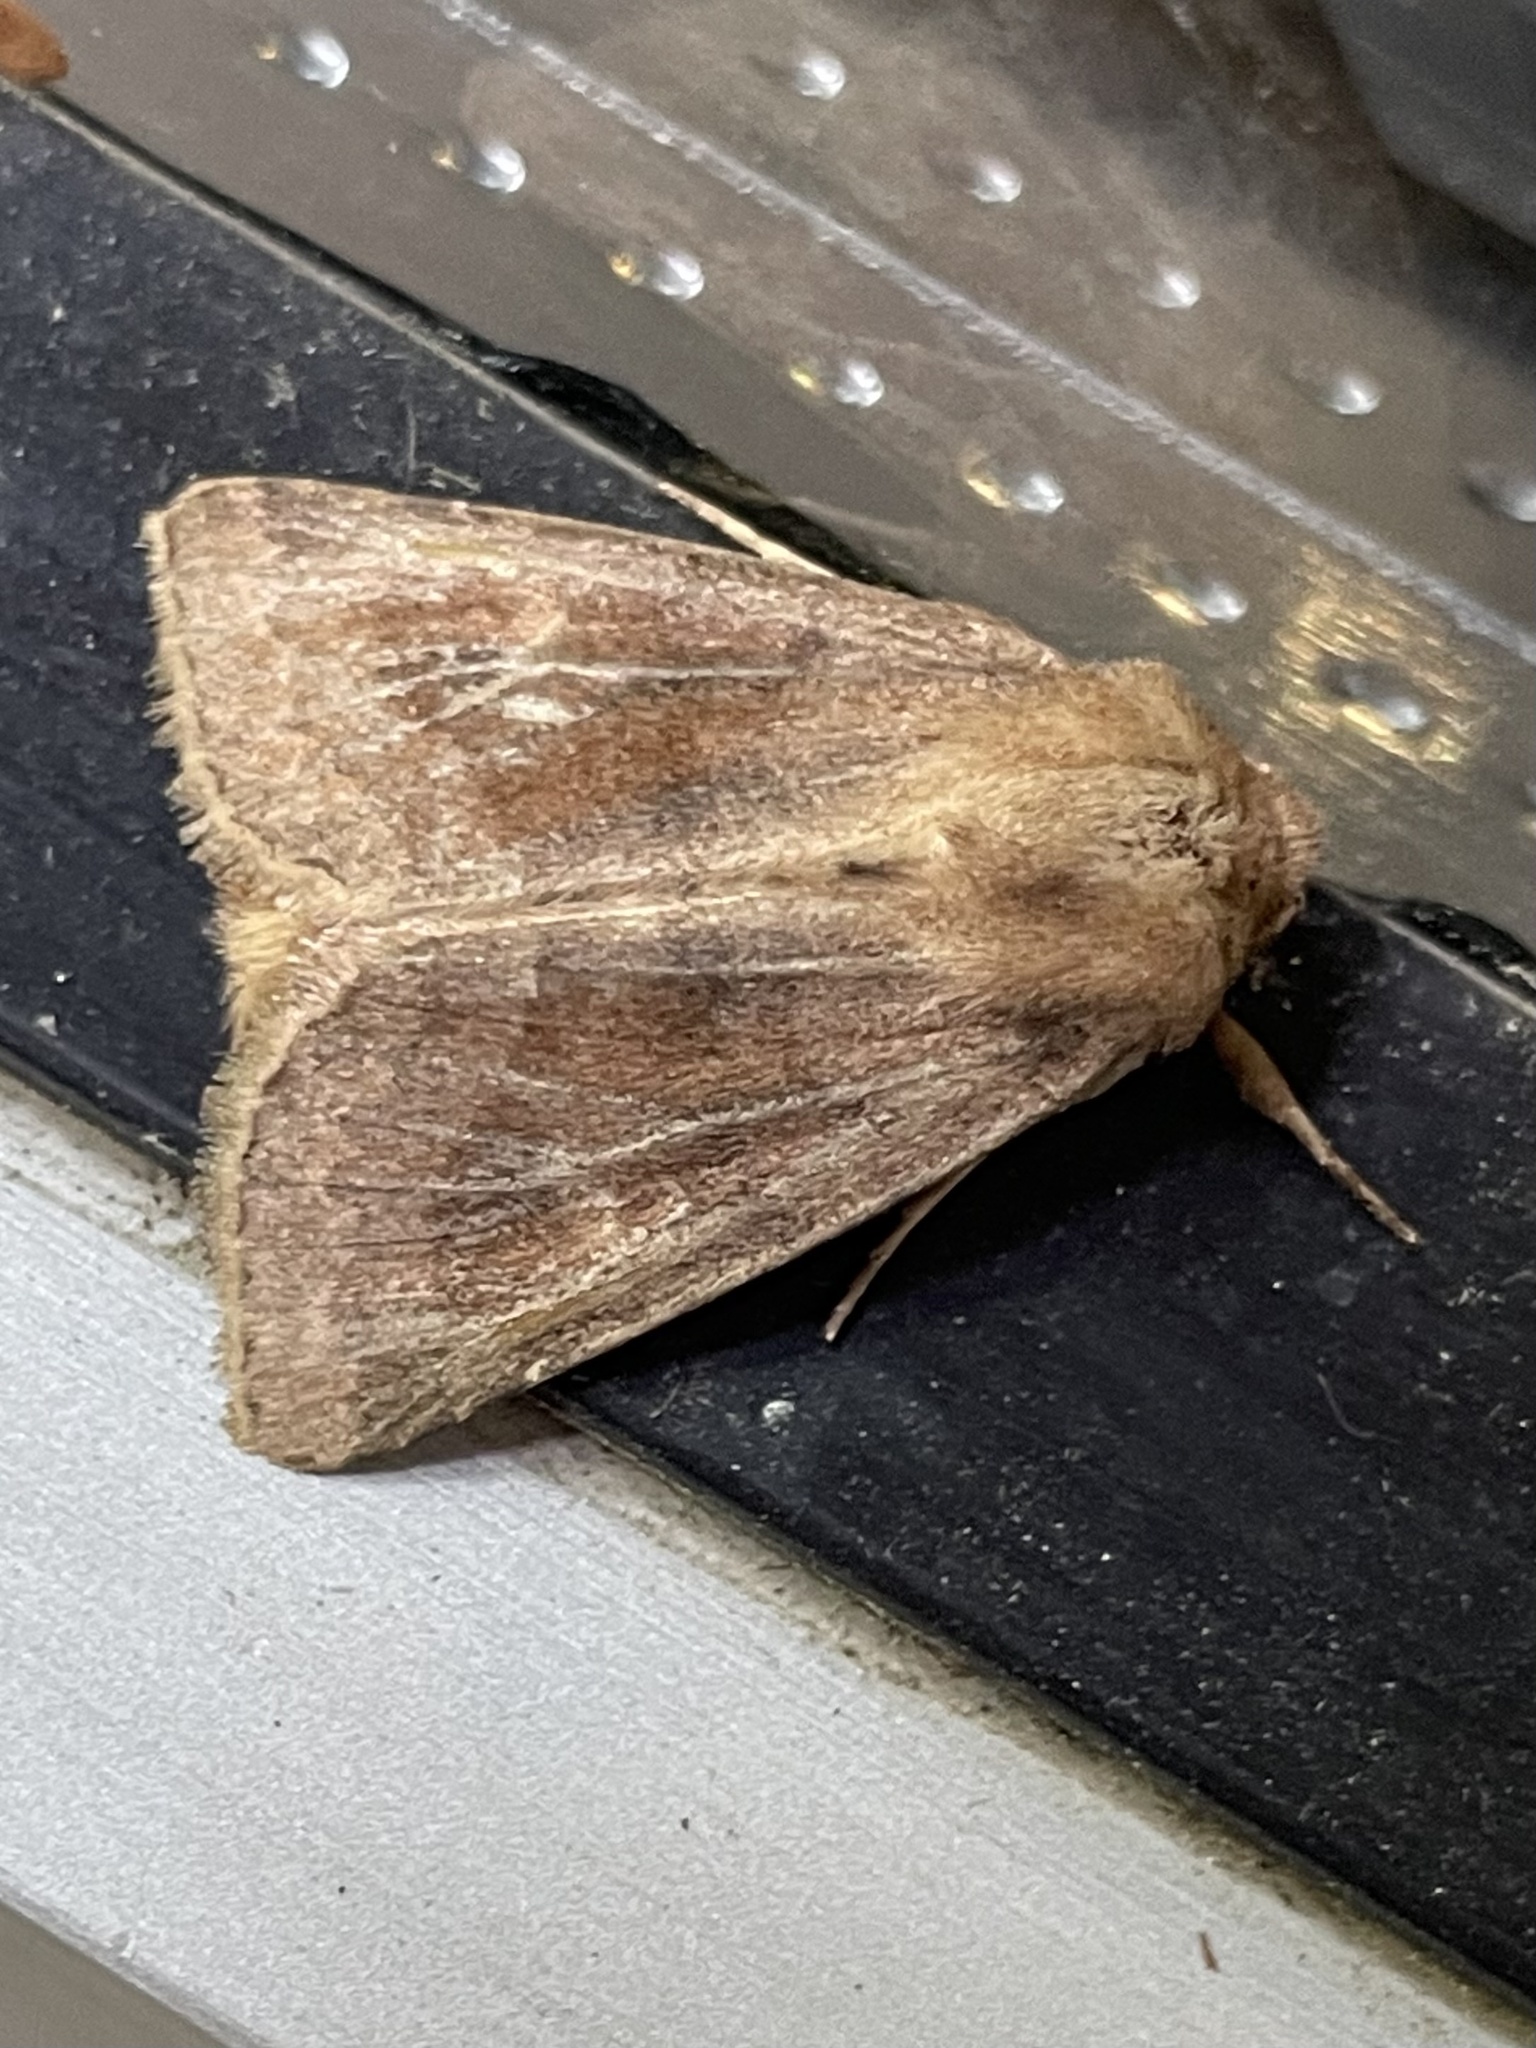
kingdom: Animalia
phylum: Arthropoda
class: Insecta
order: Lepidoptera
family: Noctuidae
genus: Nephelodes
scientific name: Nephelodes minians
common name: Bronzed cutworm
